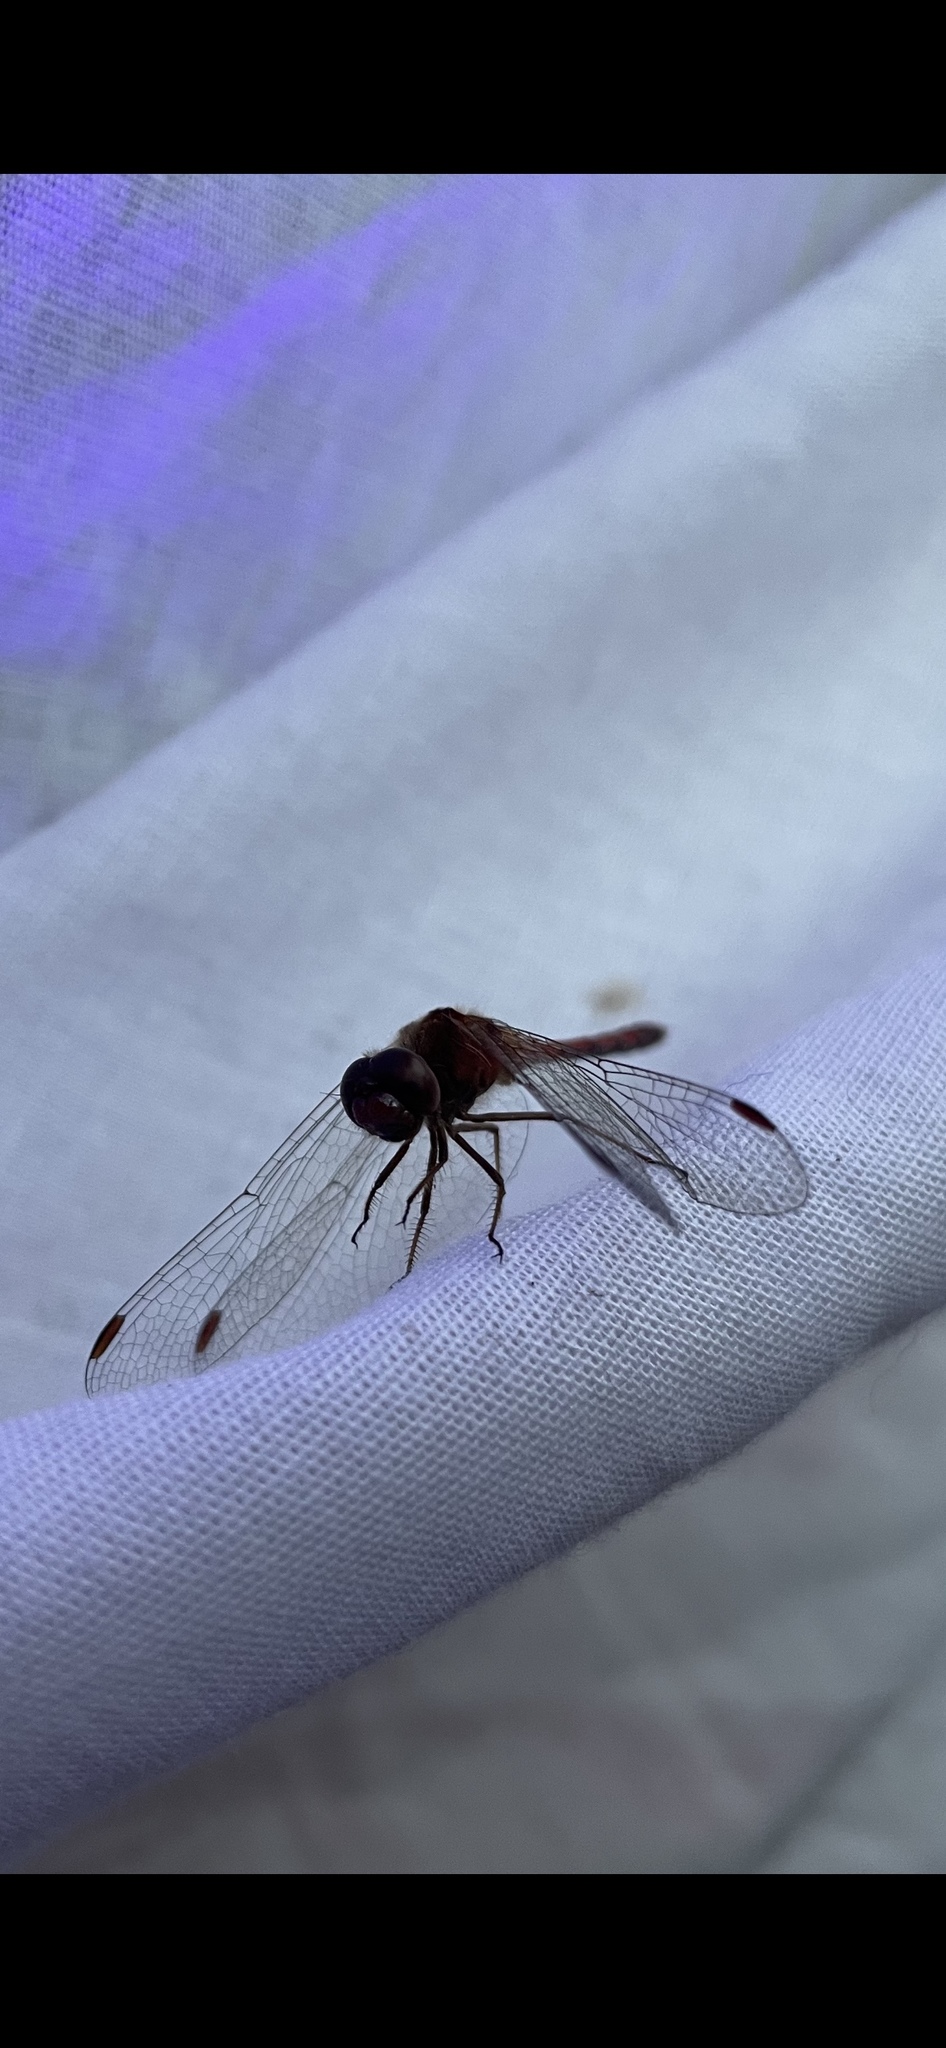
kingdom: Animalia
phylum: Arthropoda
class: Insecta
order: Odonata
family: Libellulidae
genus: Sympetrum
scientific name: Sympetrum vicinum
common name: Autumn meadowhawk
